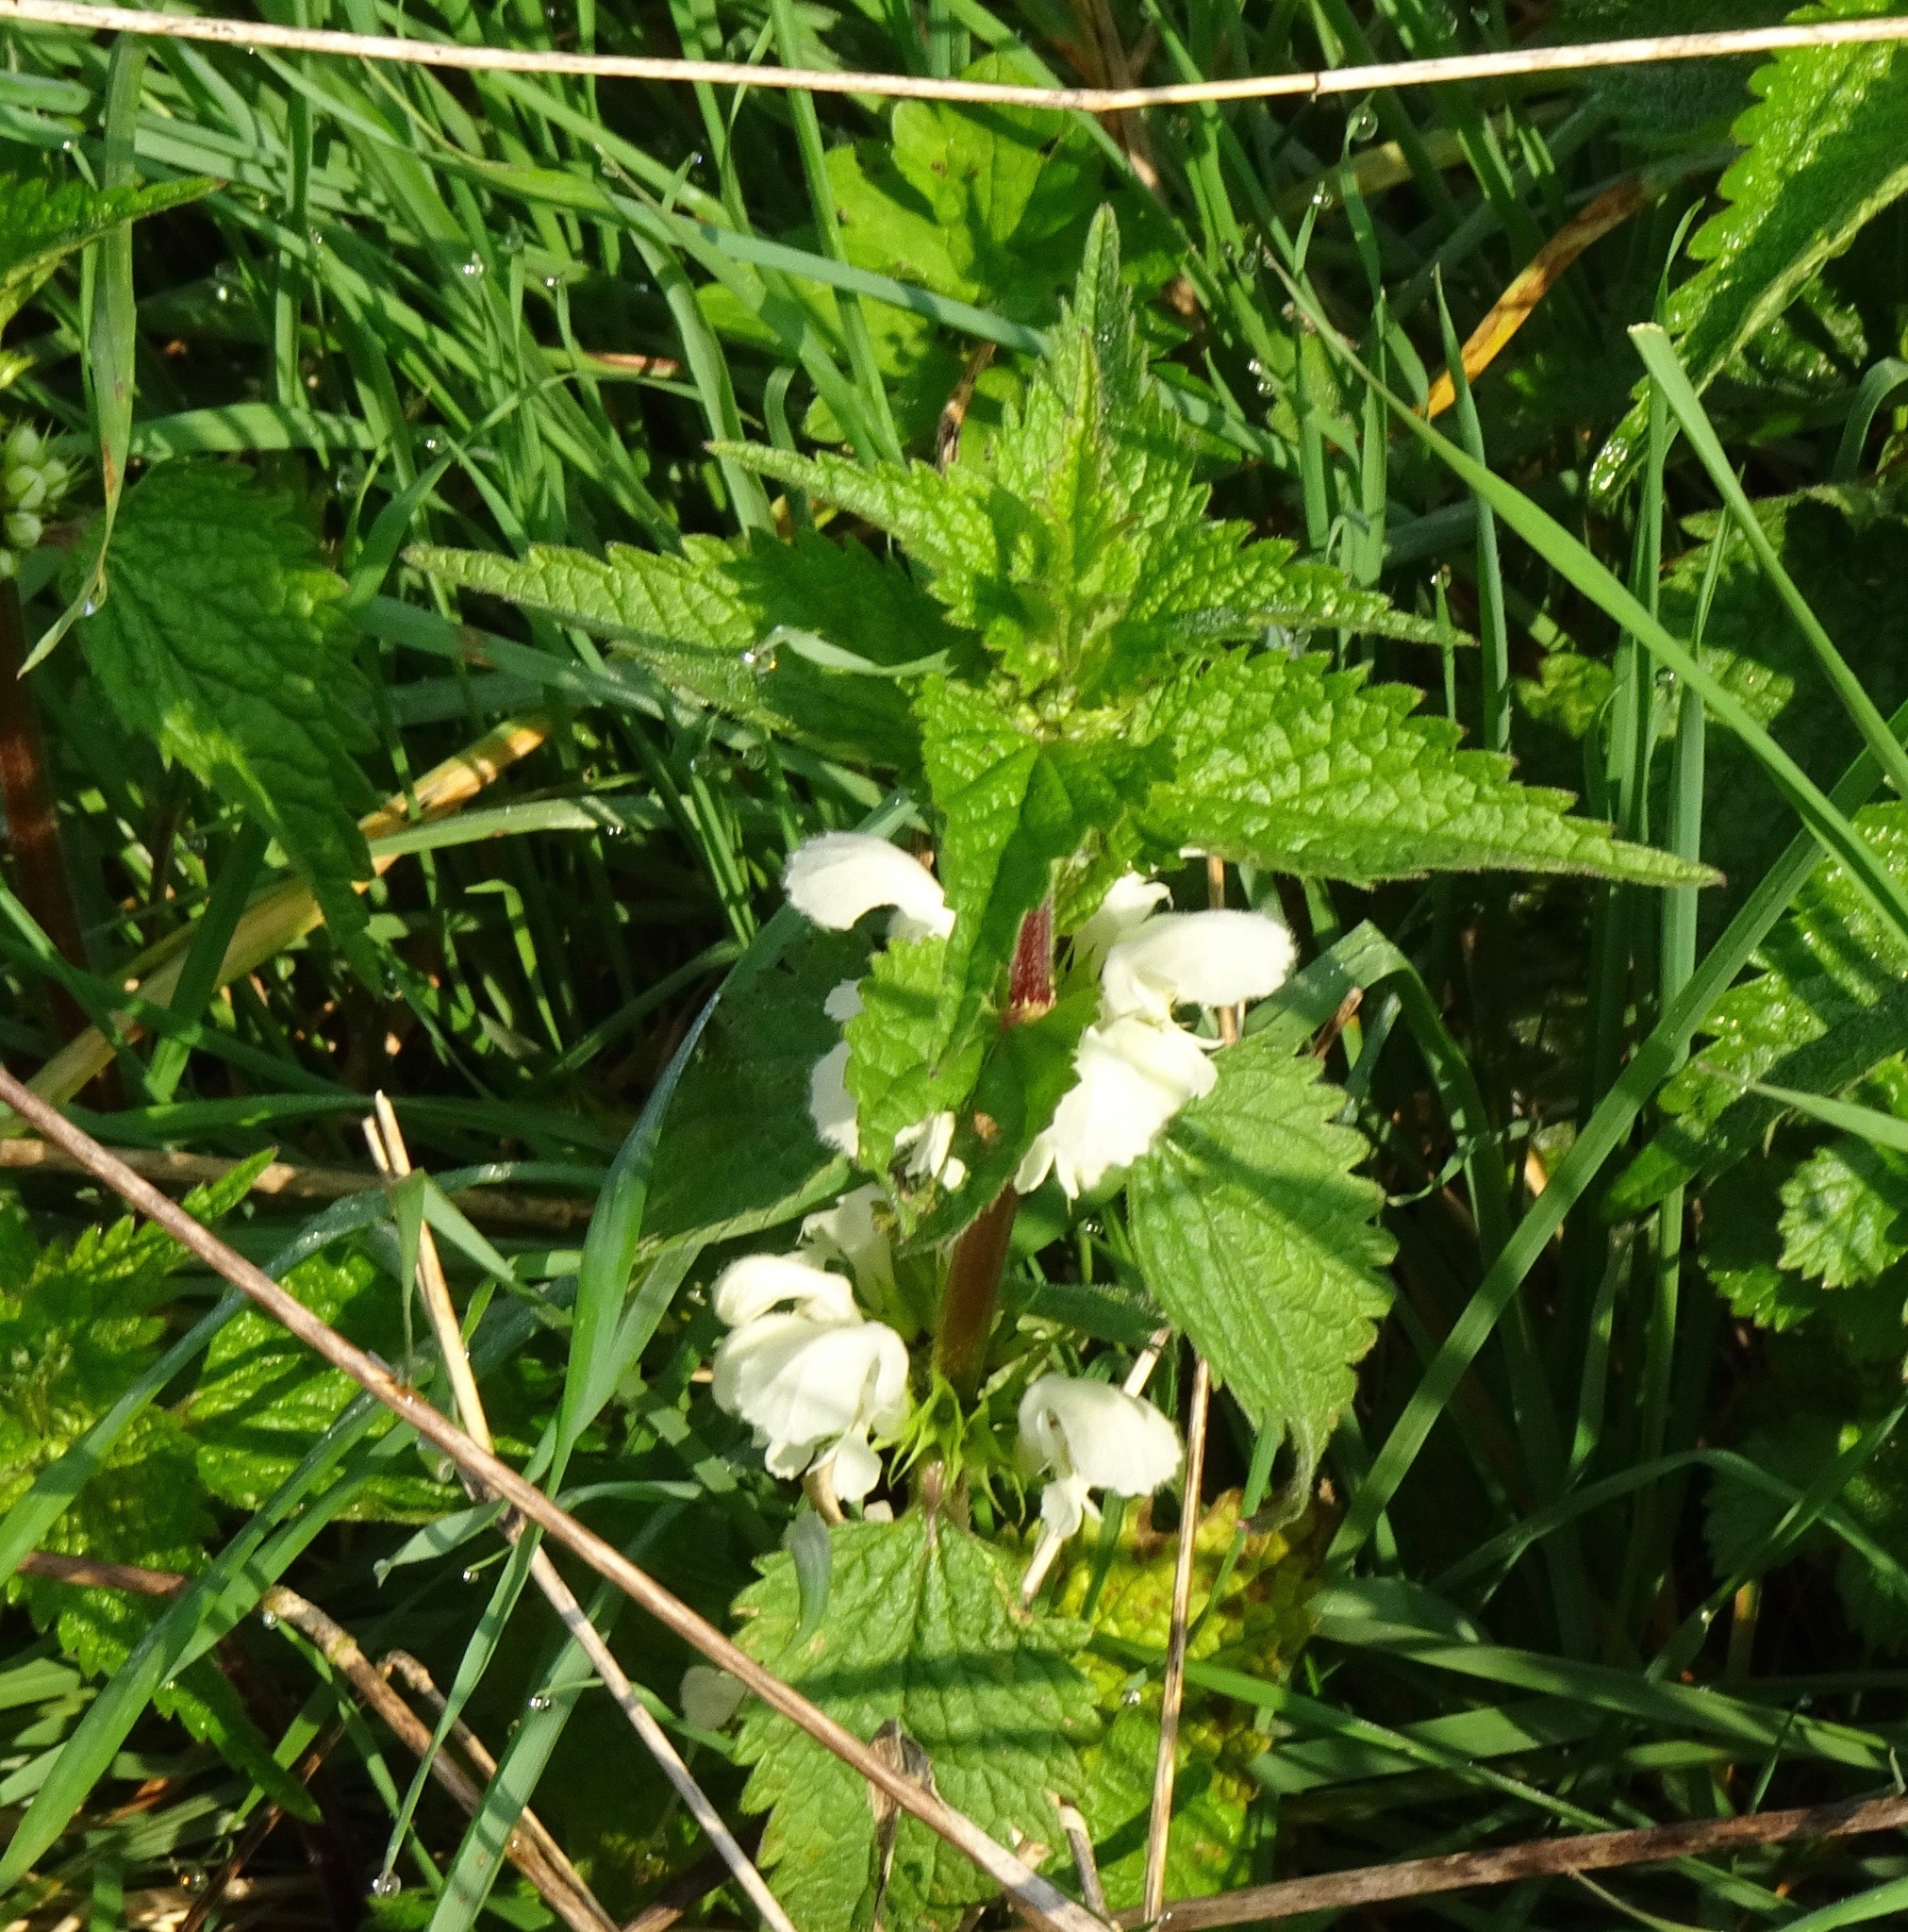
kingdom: Plantae
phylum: Tracheophyta
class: Magnoliopsida
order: Lamiales
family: Lamiaceae
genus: Lamium
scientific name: Lamium album
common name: White dead-nettle
